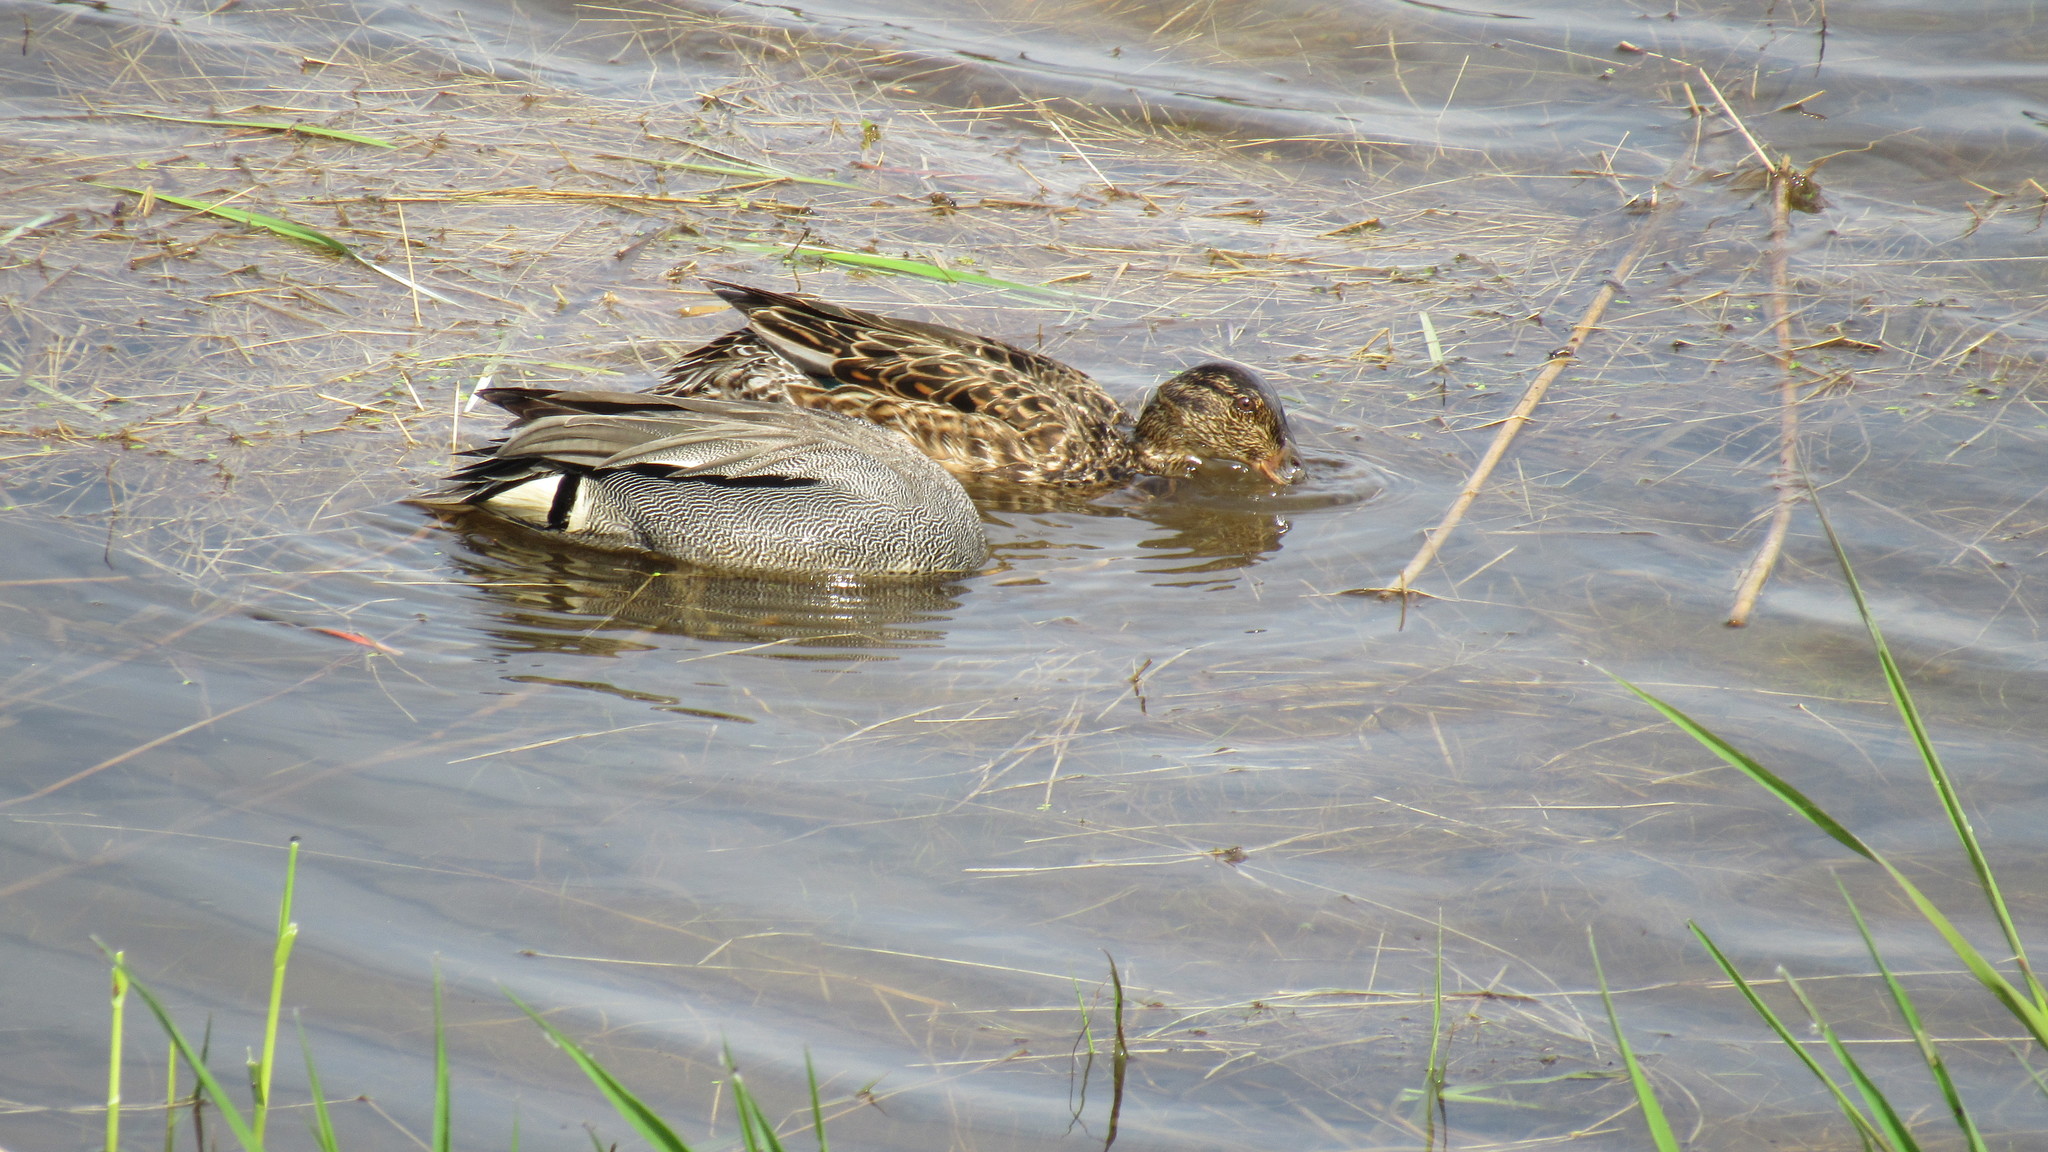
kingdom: Animalia
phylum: Chordata
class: Aves
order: Anseriformes
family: Anatidae
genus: Anas
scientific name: Anas crecca
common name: Eurasian teal
